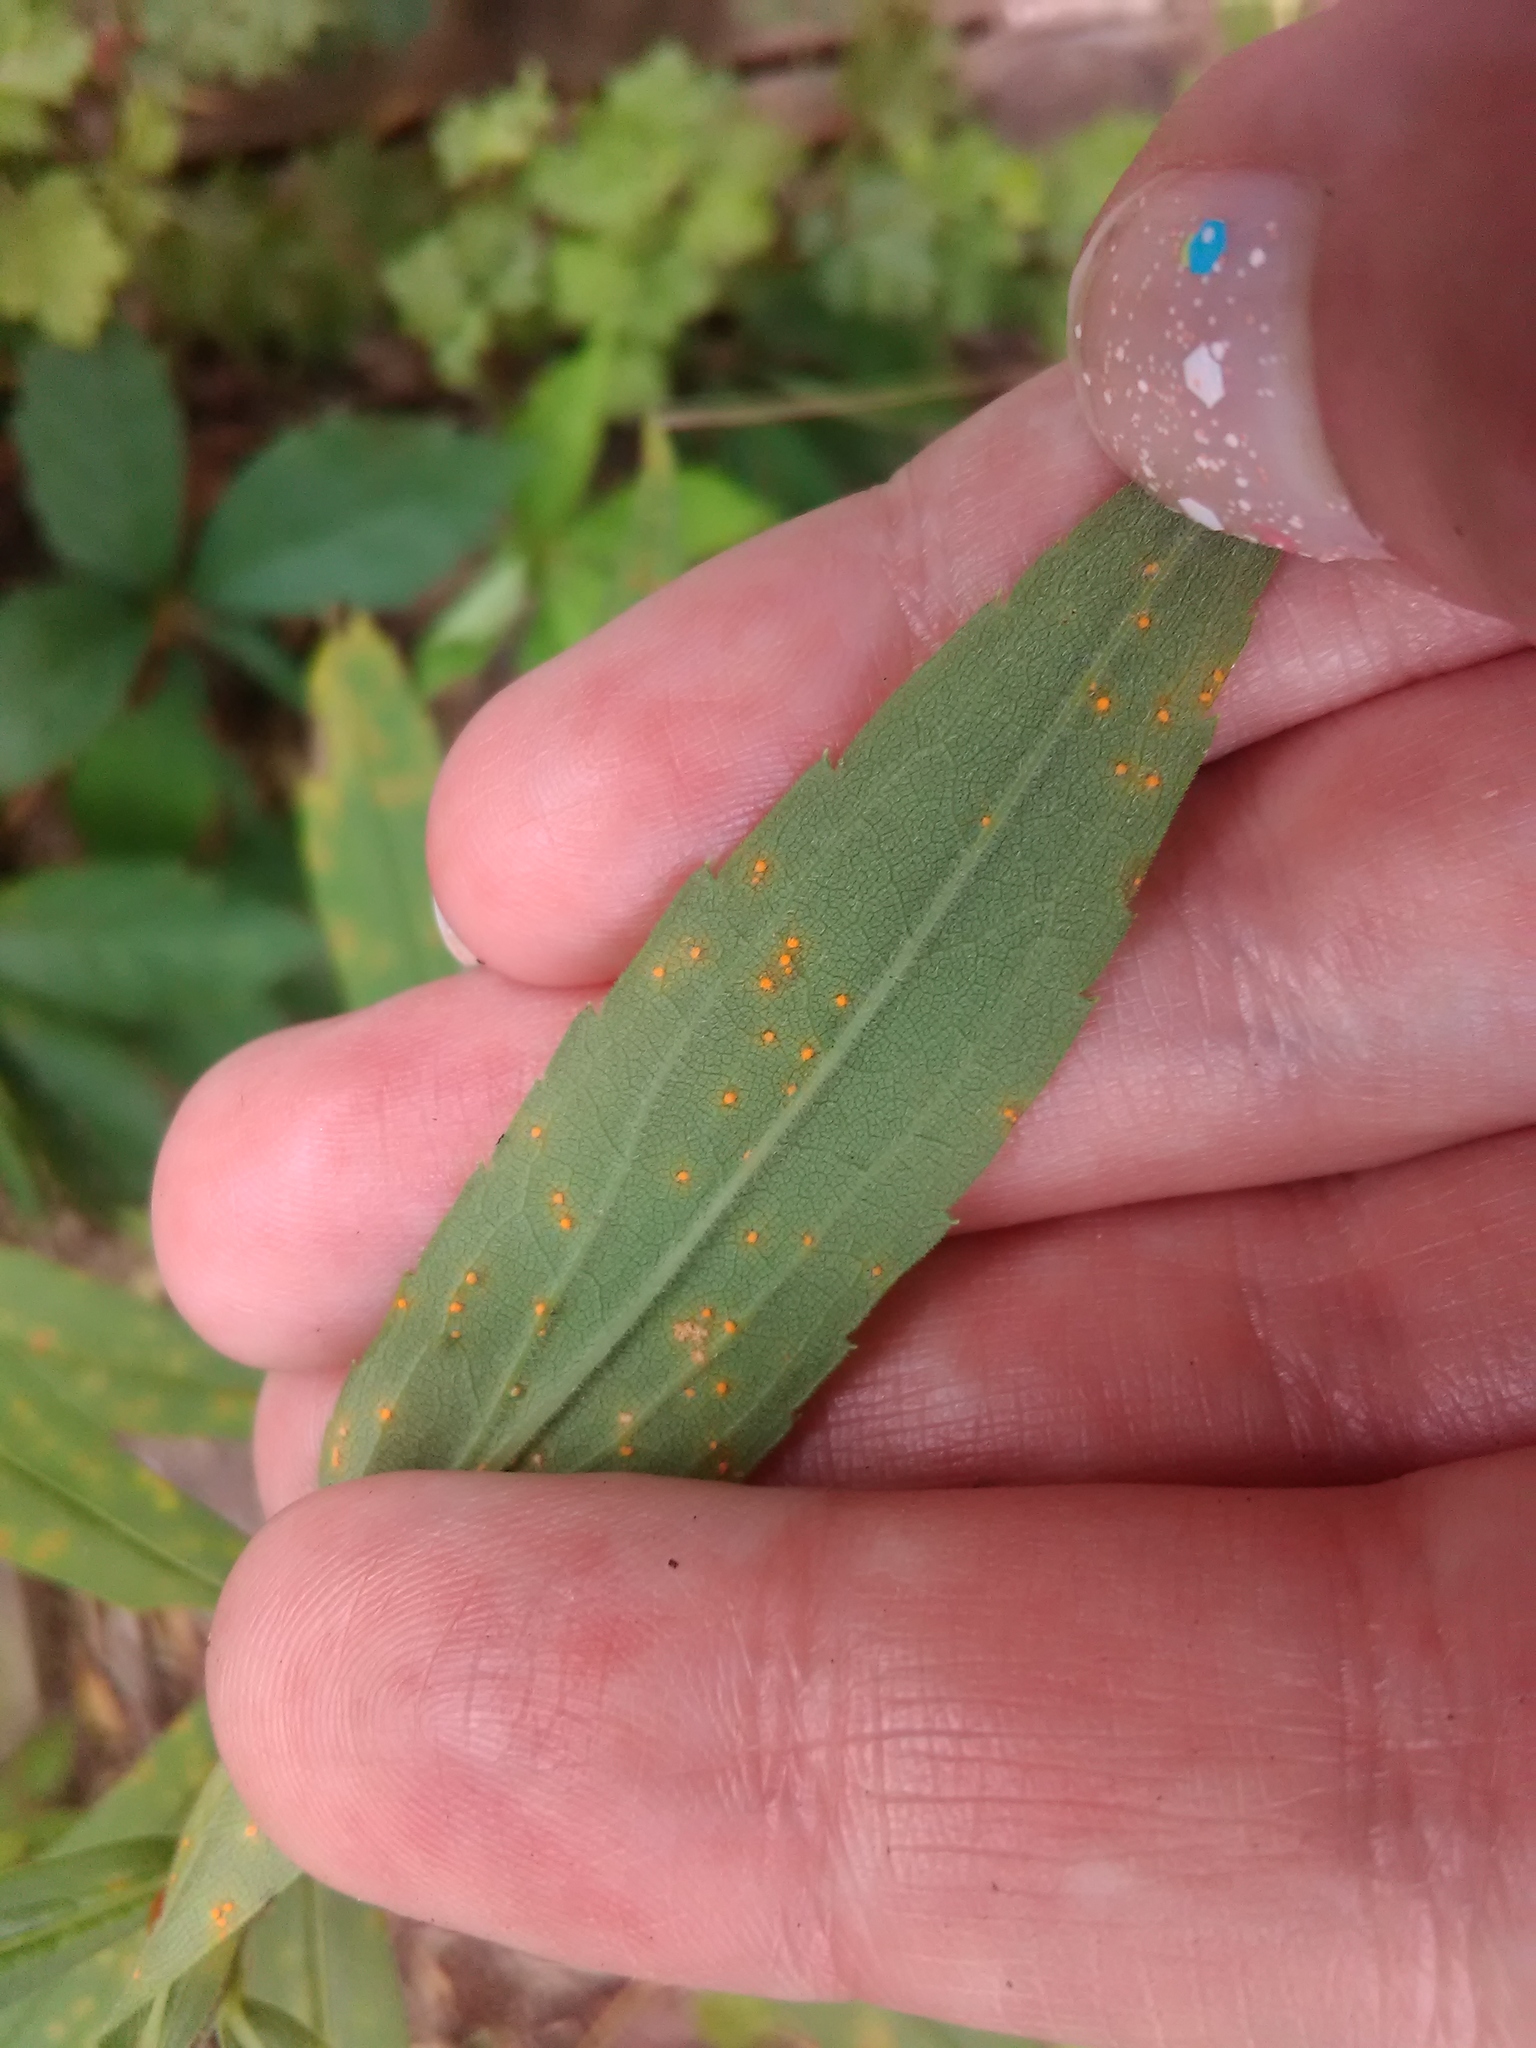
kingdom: Fungi
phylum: Basidiomycota
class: Pucciniomycetes
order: Pucciniales
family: Coleosporiaceae
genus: Coleosporium
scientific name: Coleosporium asterum
